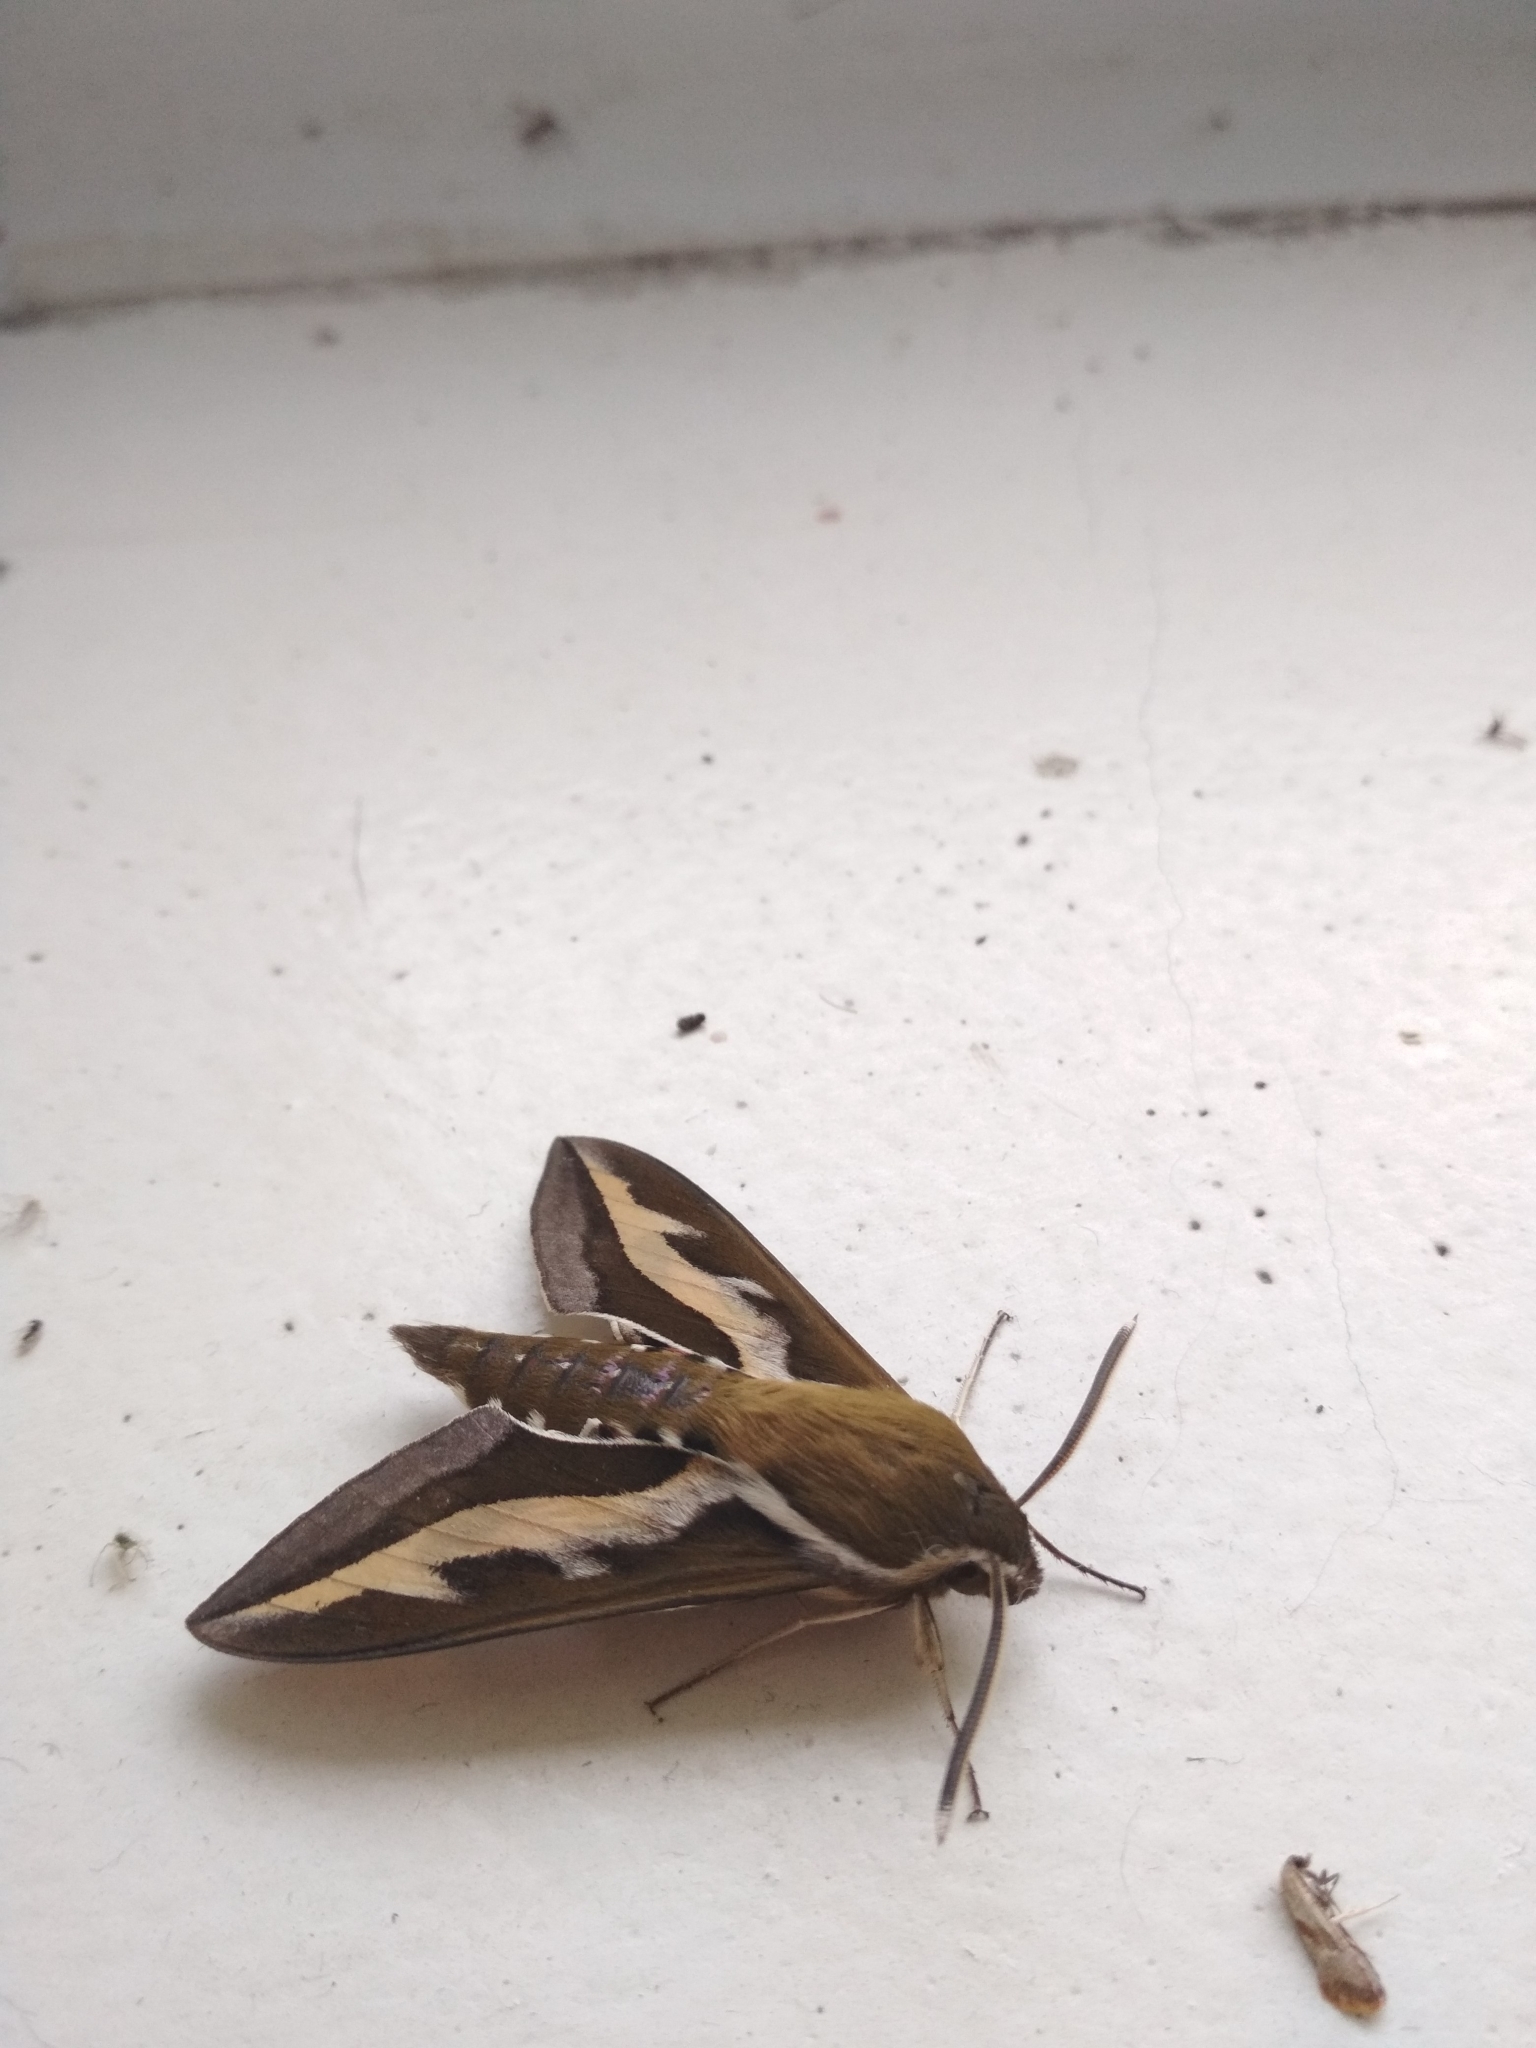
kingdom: Animalia
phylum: Arthropoda
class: Insecta
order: Lepidoptera
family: Sphingidae
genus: Hyles
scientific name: Hyles gallii
